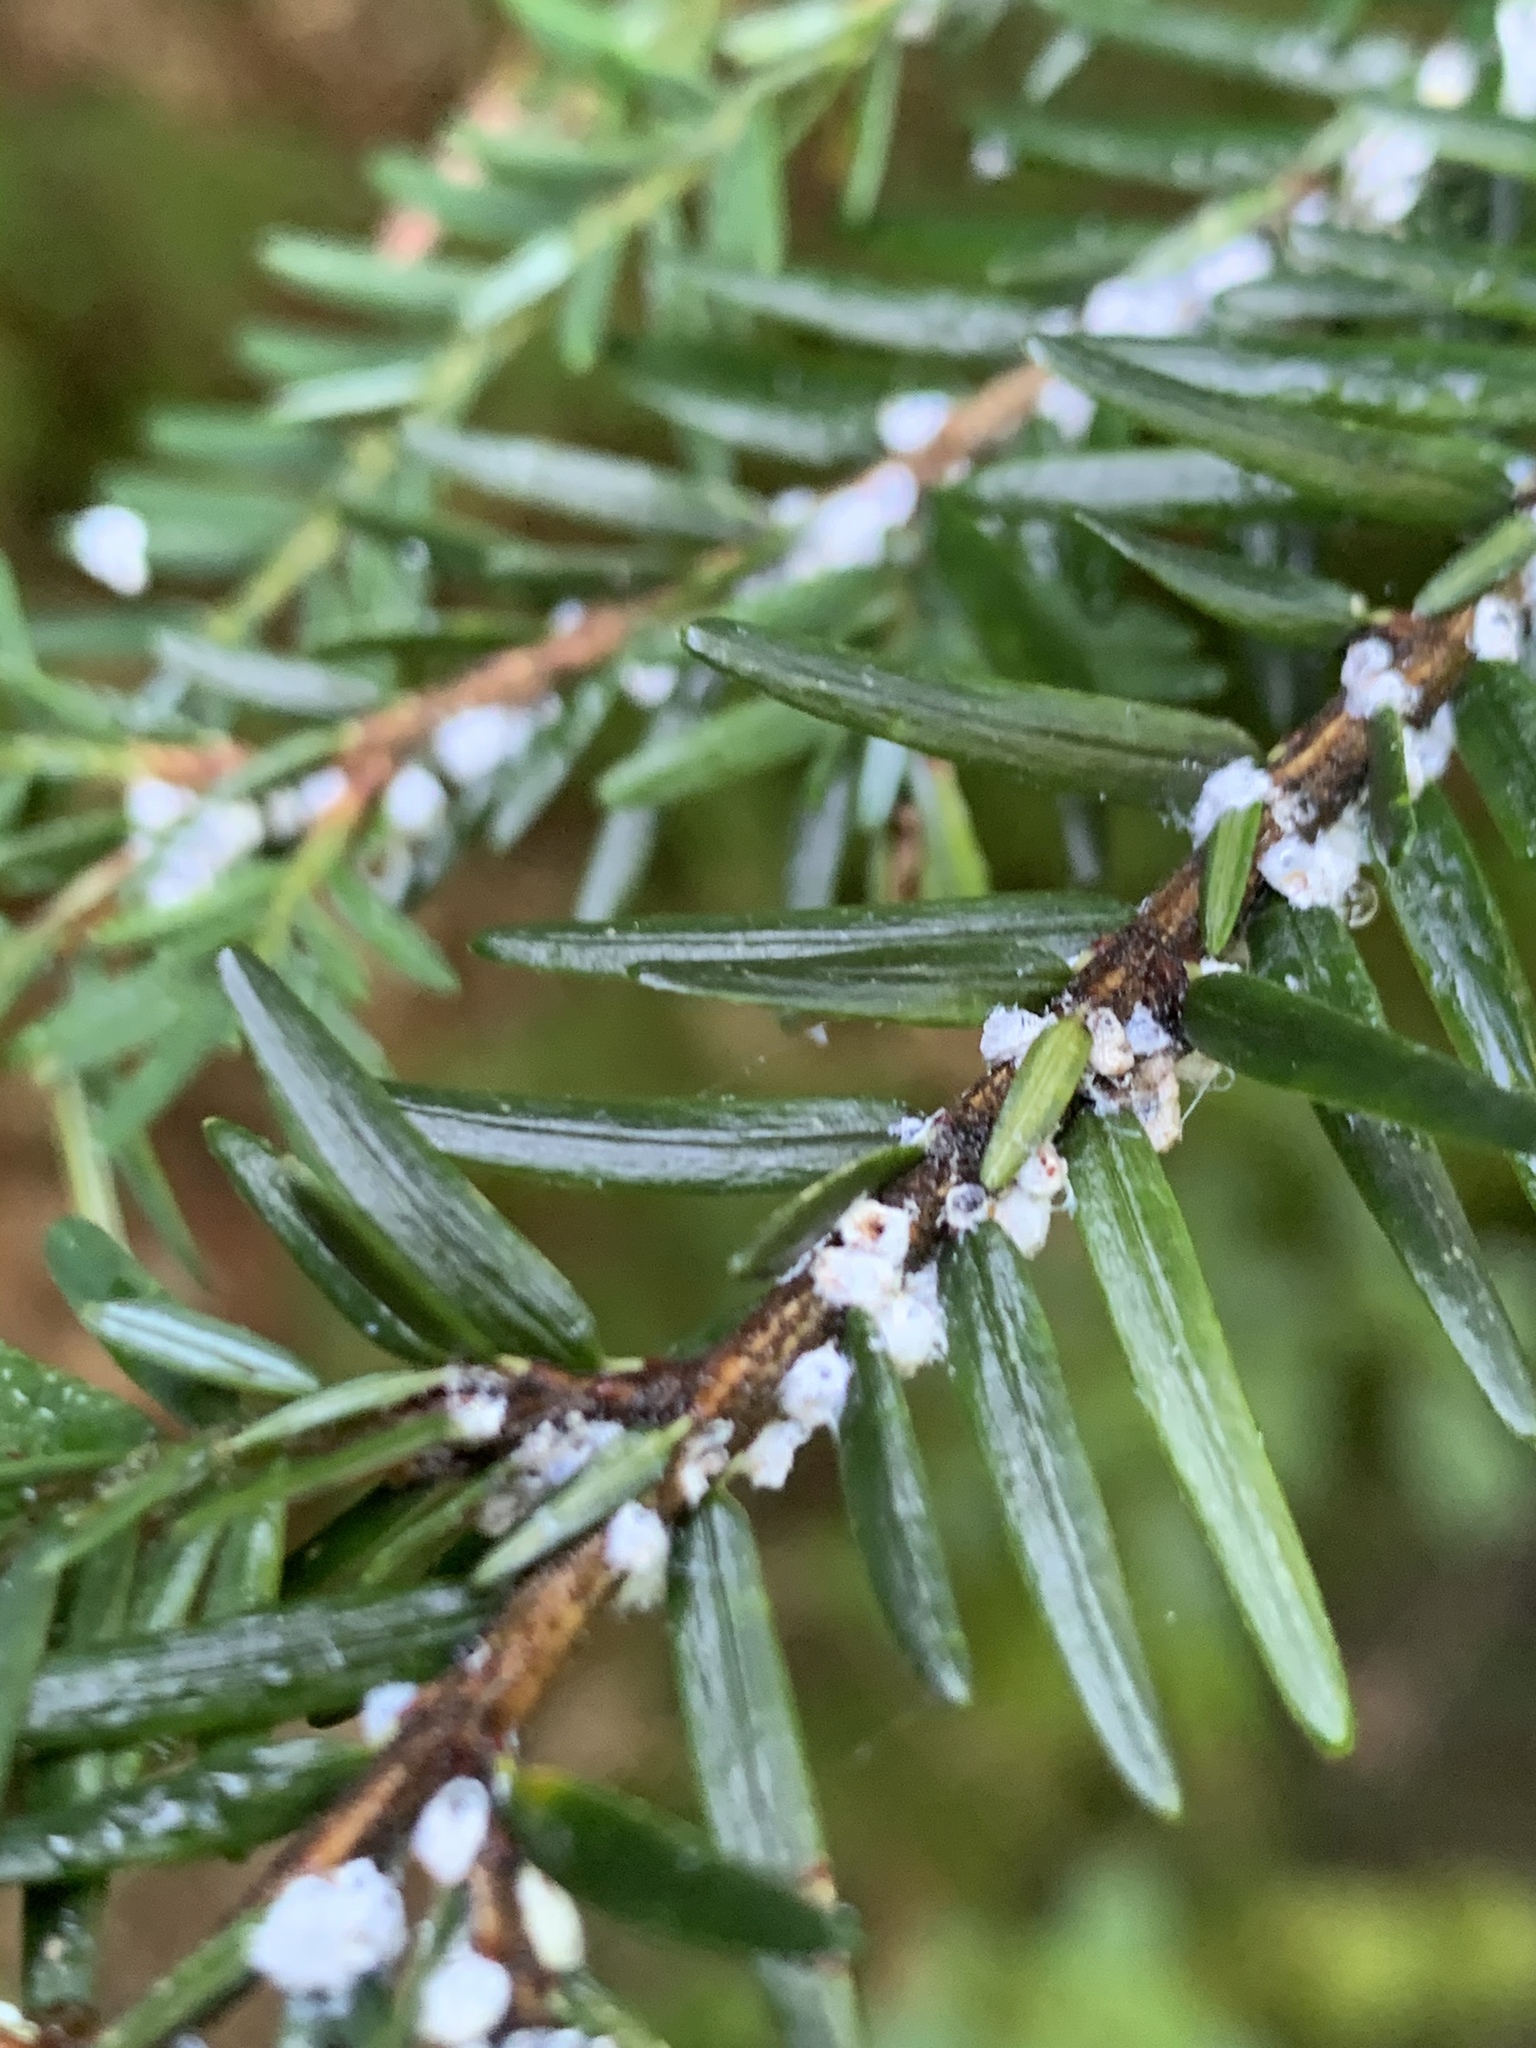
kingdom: Animalia
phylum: Arthropoda
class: Insecta
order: Hemiptera
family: Adelgidae
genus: Adelges
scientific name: Adelges tsugae
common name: Hemlock woolly adelgid
